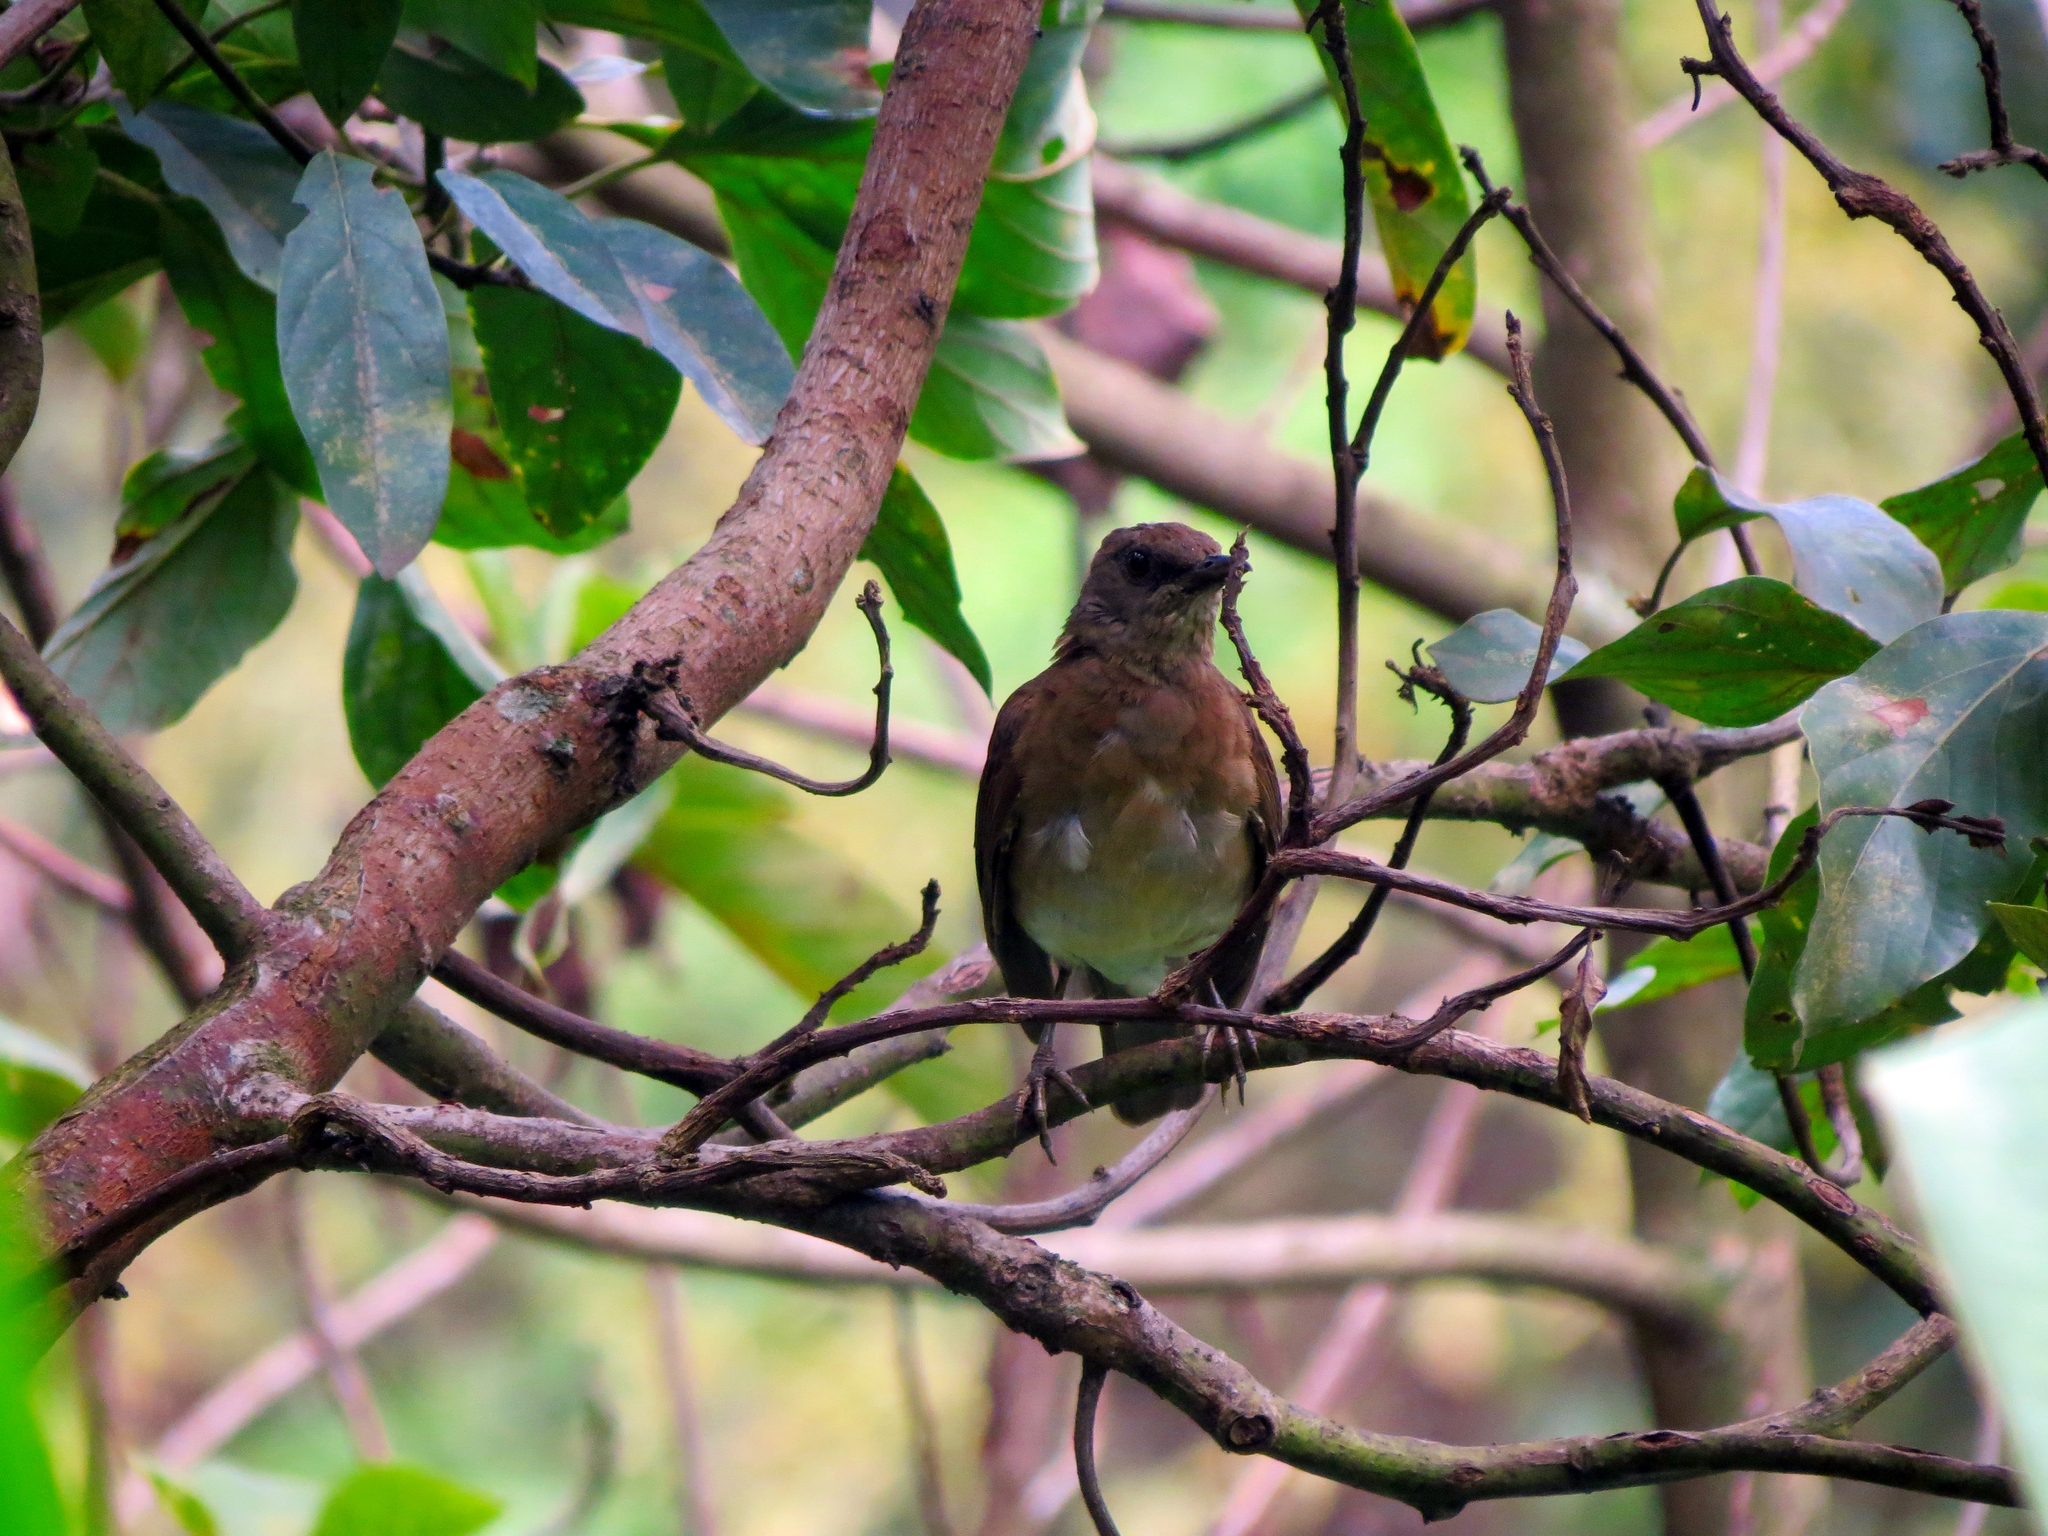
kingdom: Animalia
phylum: Chordata
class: Aves
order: Passeriformes
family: Turdidae
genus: Turdus
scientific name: Turdus ignobilis
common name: Black-billed thrush
